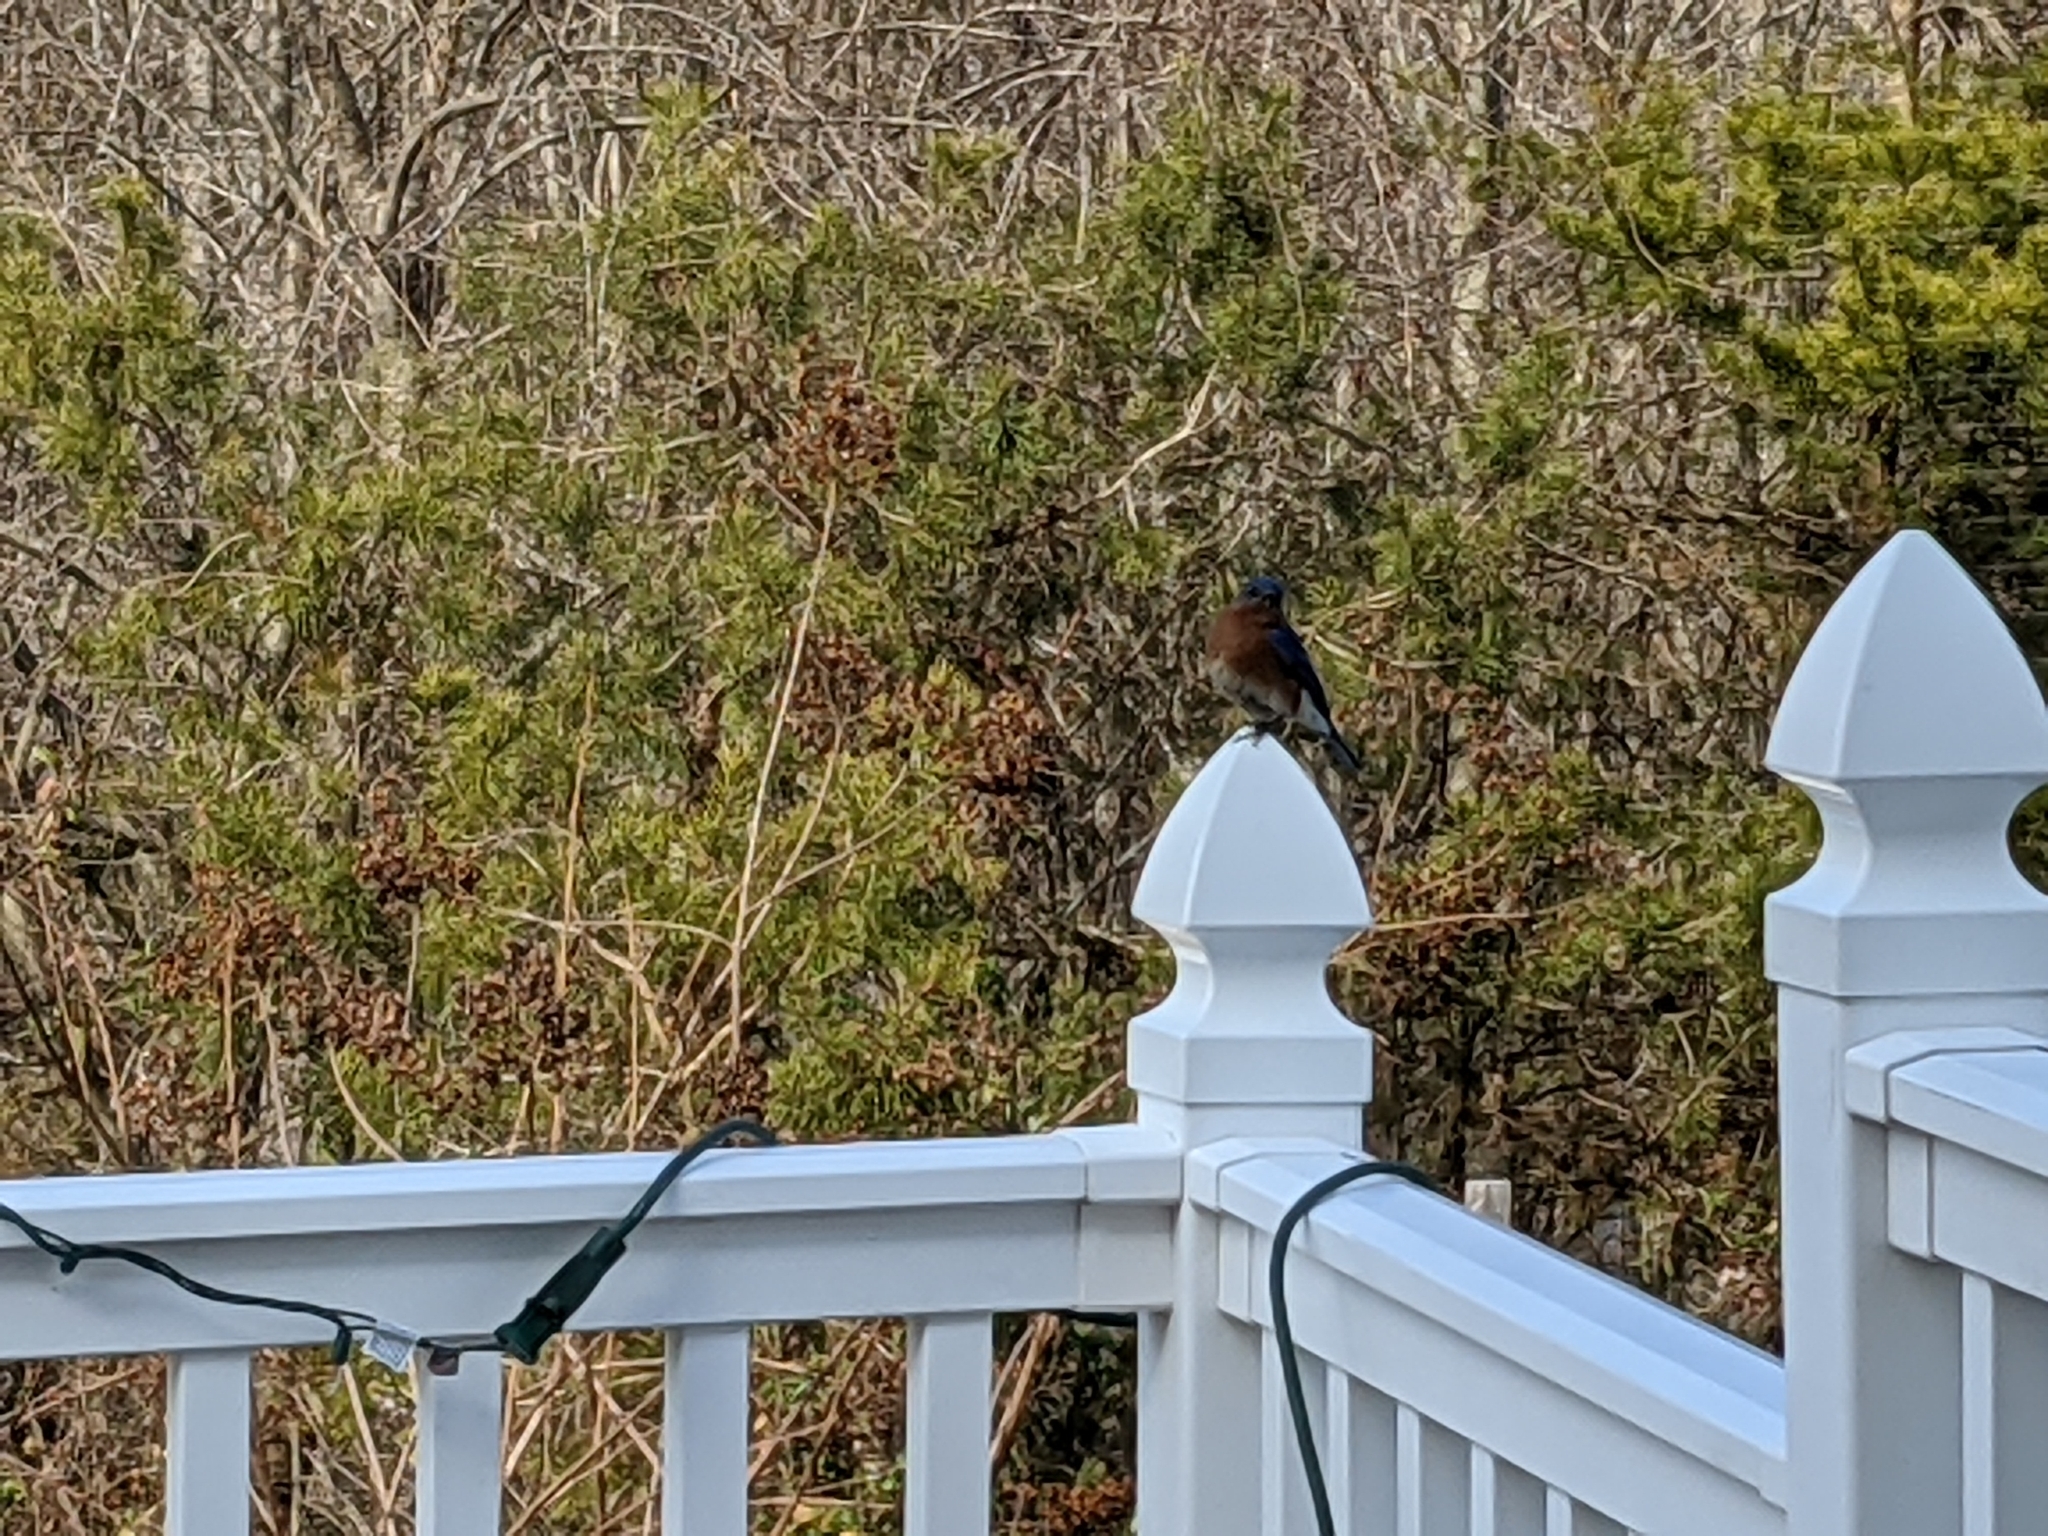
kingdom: Animalia
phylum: Chordata
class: Aves
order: Passeriformes
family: Turdidae
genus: Sialia
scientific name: Sialia sialis
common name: Eastern bluebird
